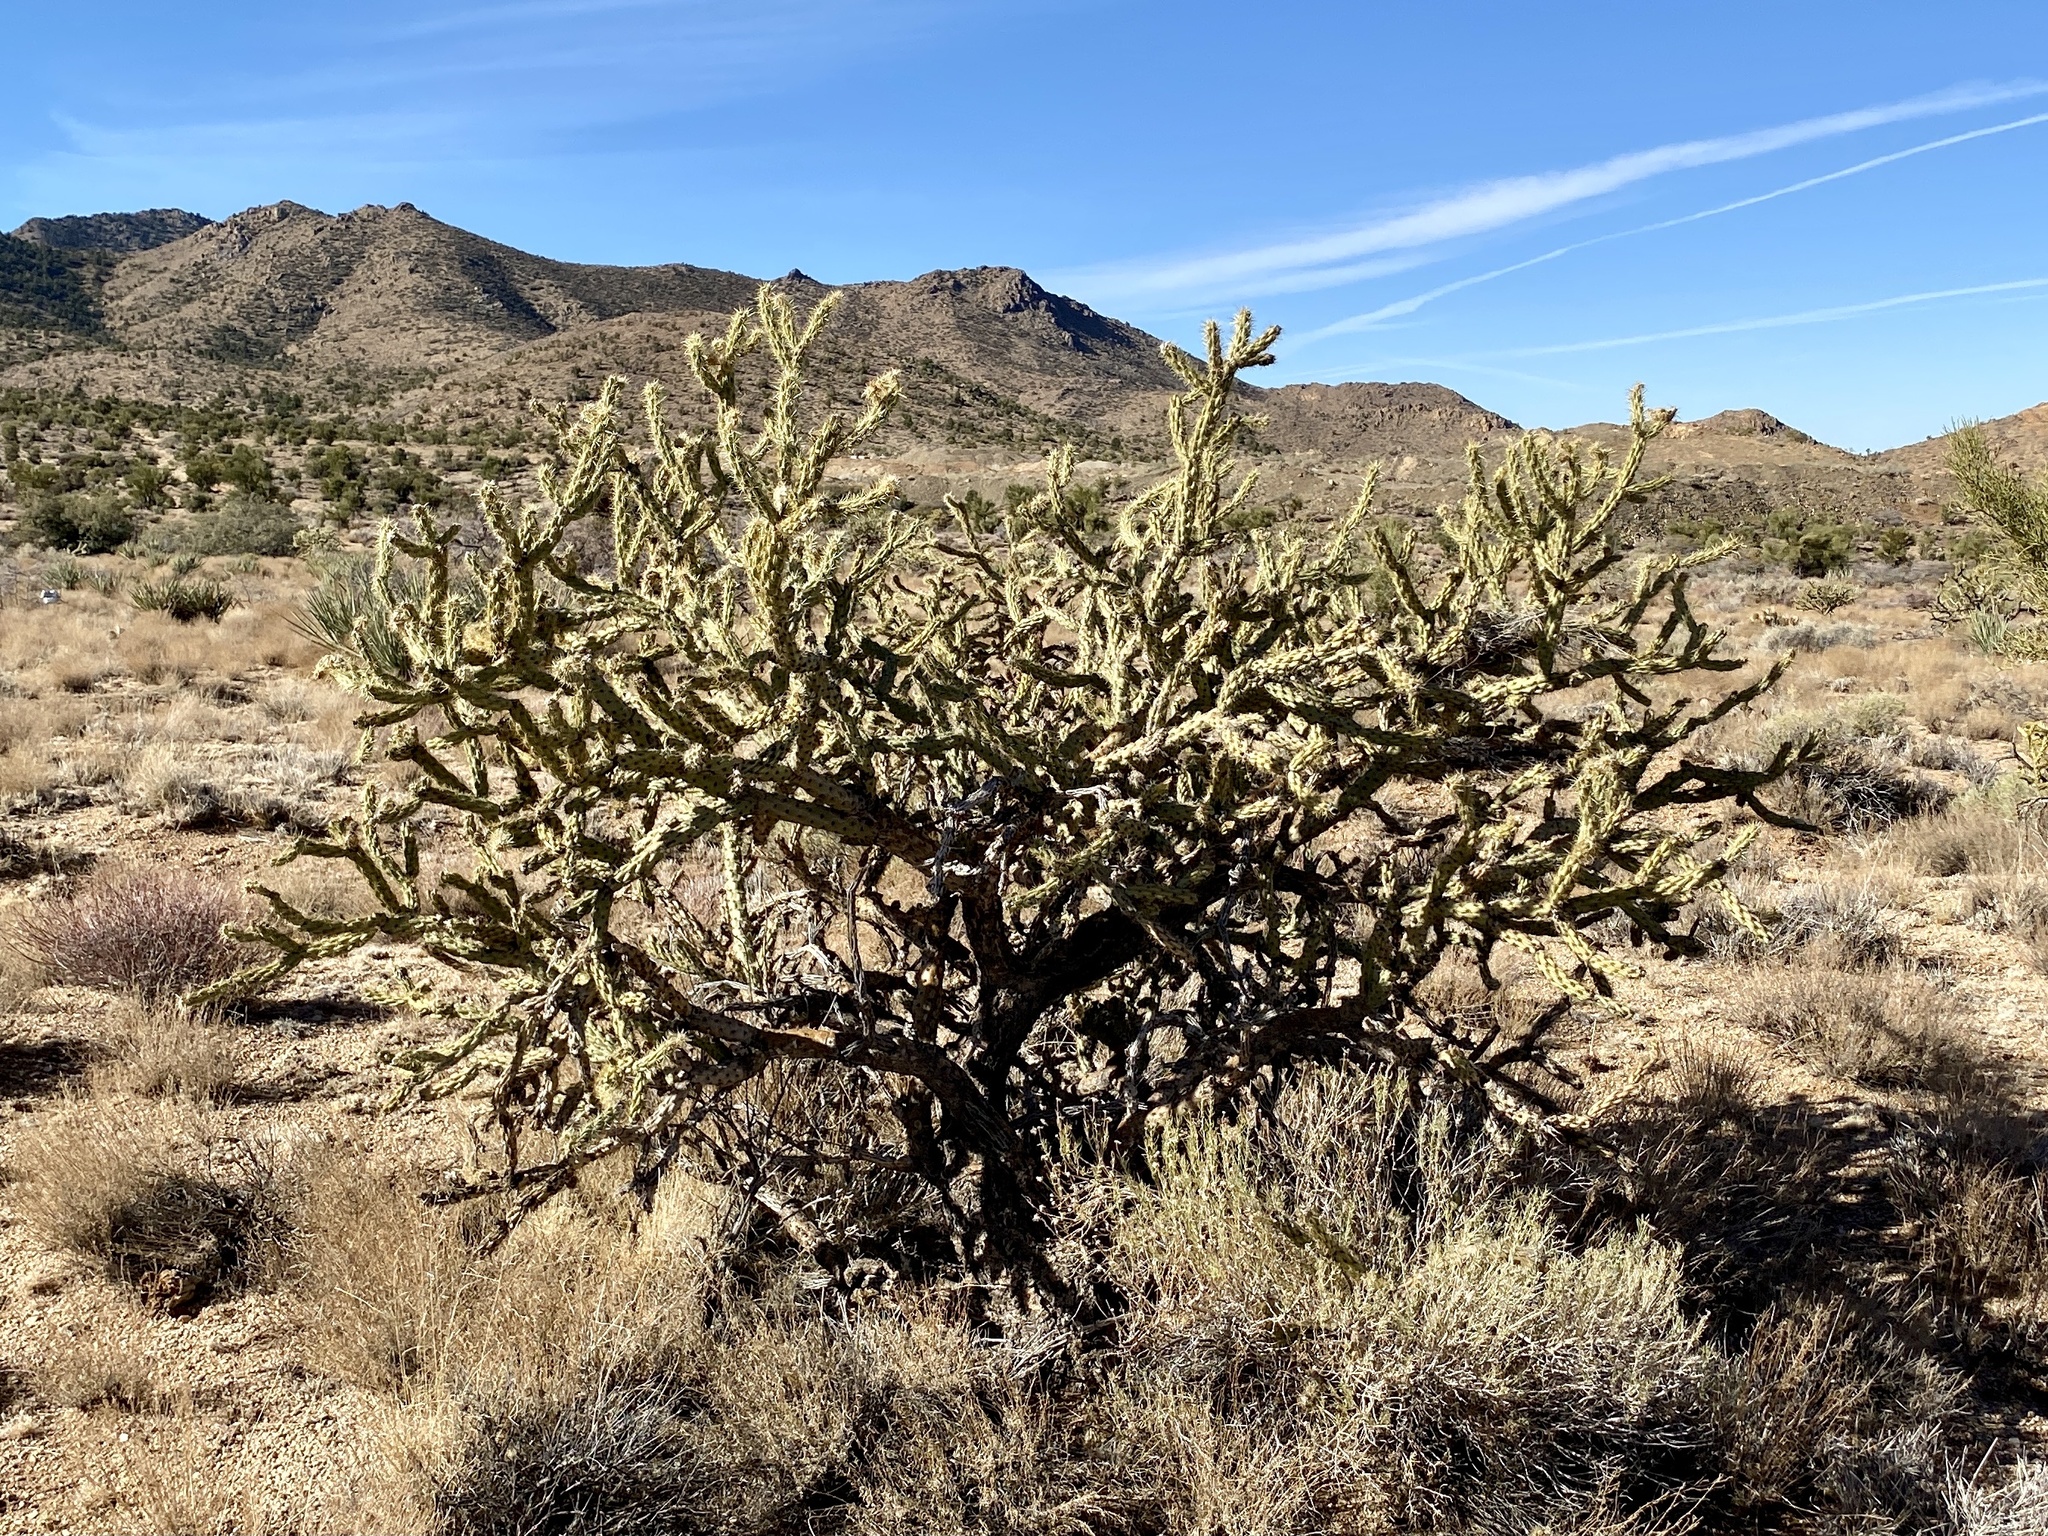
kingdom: Plantae
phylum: Tracheophyta
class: Magnoliopsida
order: Caryophyllales
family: Cactaceae
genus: Cylindropuntia
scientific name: Cylindropuntia acanthocarpa
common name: Buckhorn cholla
